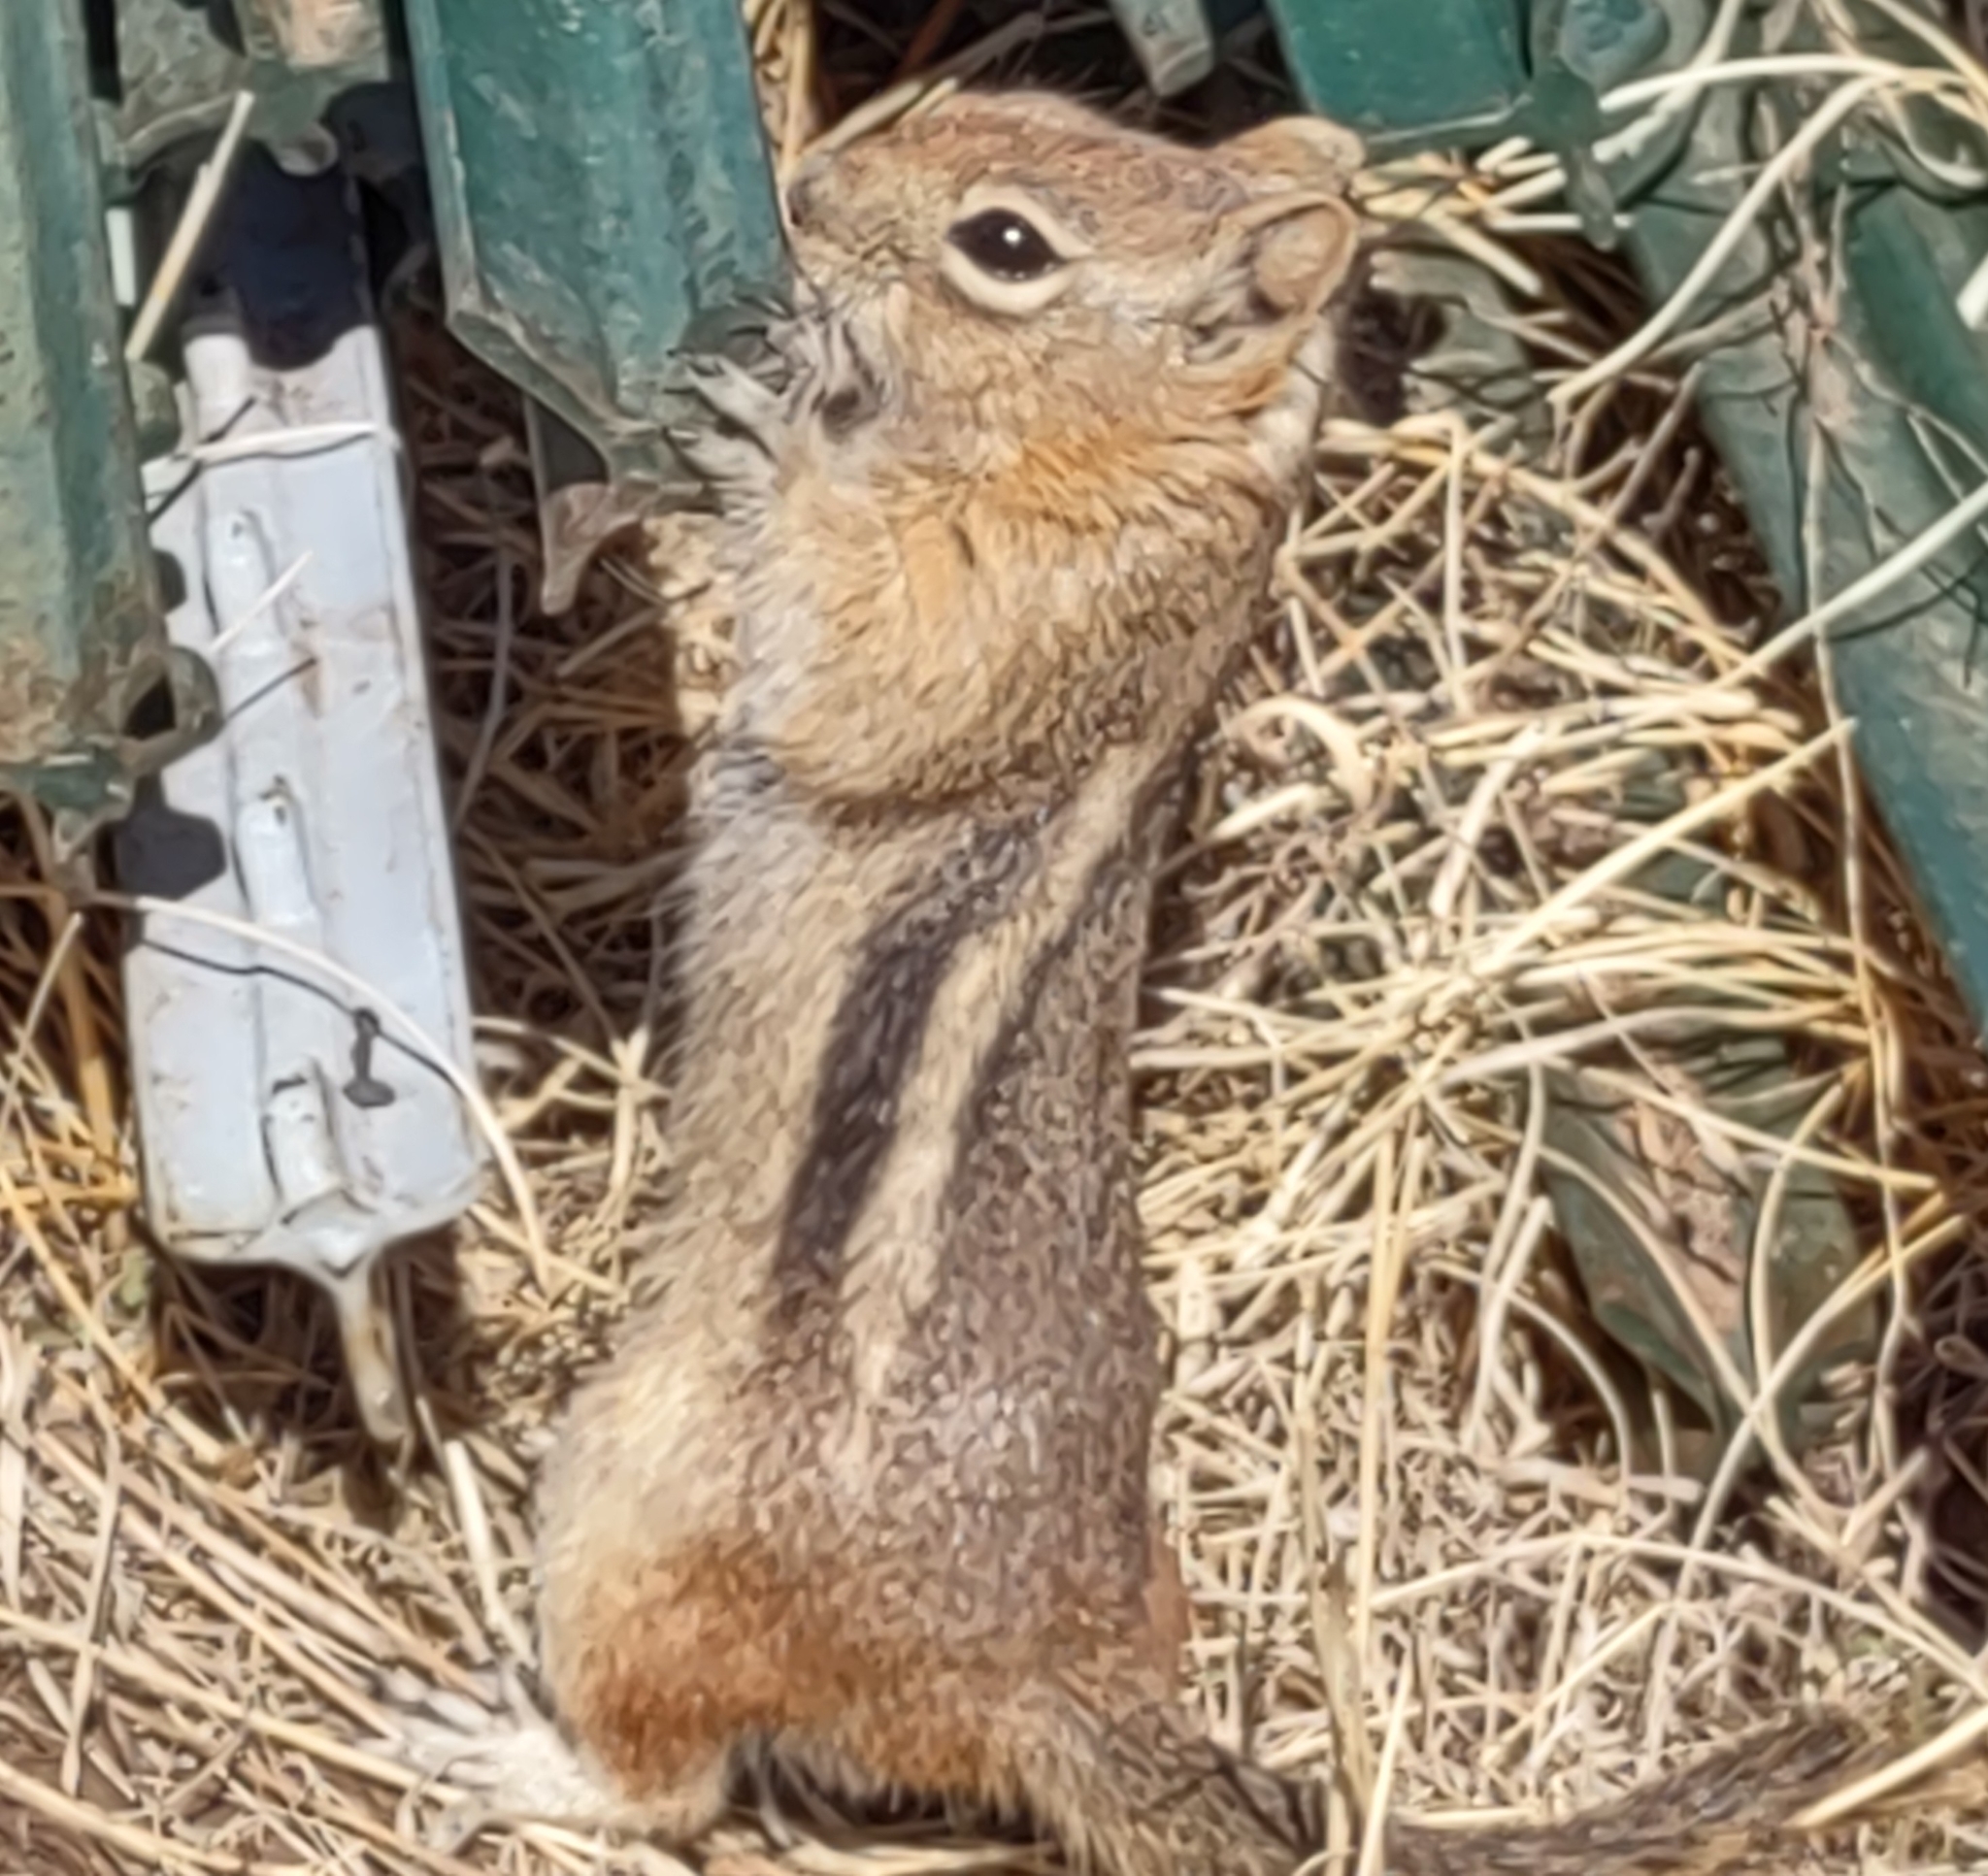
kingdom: Animalia
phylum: Chordata
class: Mammalia
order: Rodentia
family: Sciuridae
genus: Callospermophilus
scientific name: Callospermophilus lateralis
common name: Golden-mantled ground squirrel
